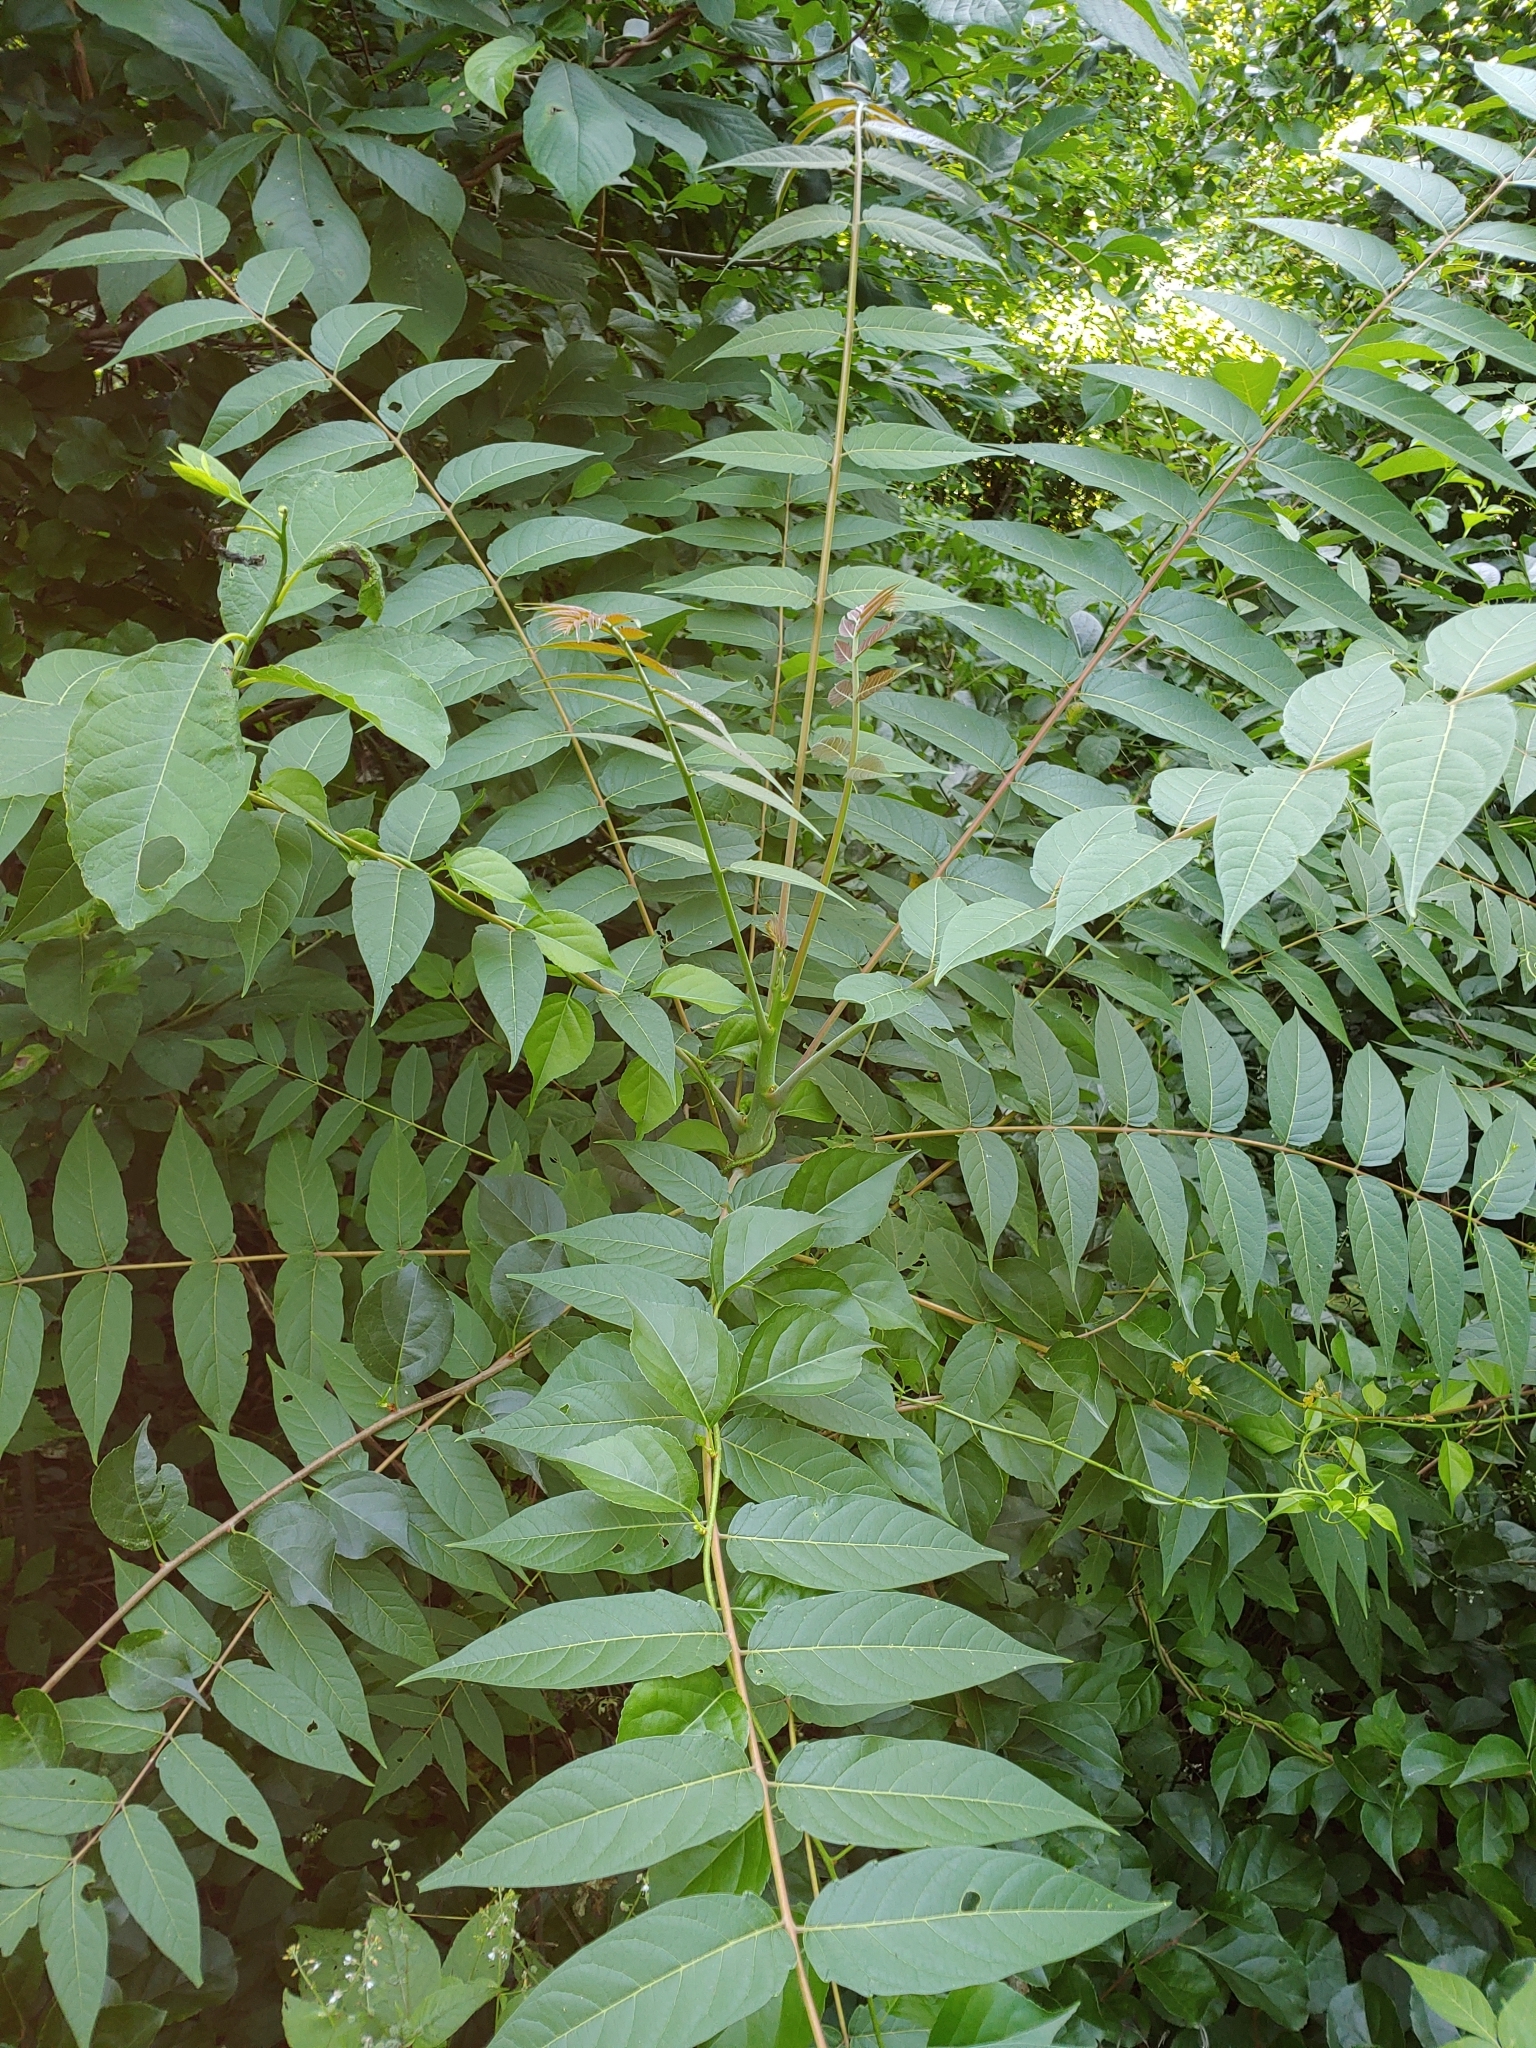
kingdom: Plantae
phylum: Tracheophyta
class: Magnoliopsida
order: Sapindales
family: Simaroubaceae
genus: Ailanthus
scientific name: Ailanthus altissima
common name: Tree-of-heaven
